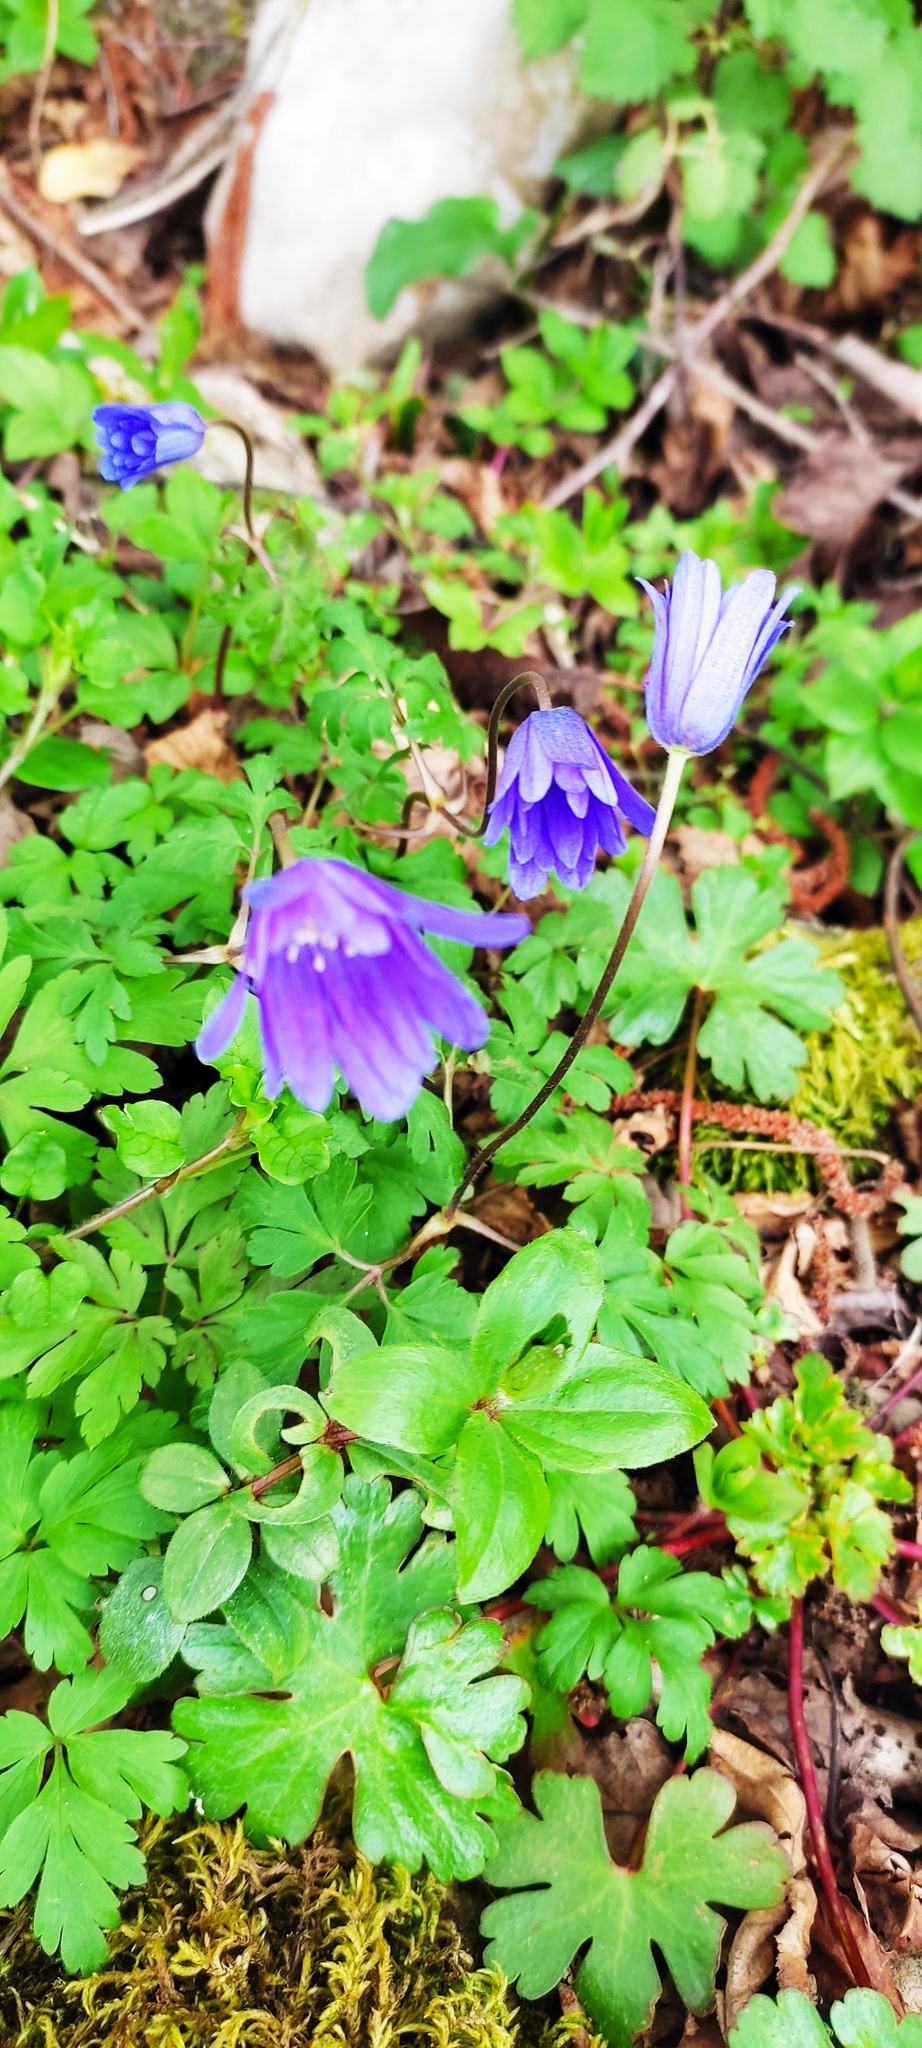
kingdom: Plantae
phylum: Tracheophyta
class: Magnoliopsida
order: Ranunculales
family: Ranunculaceae
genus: Anemone
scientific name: Anemone hortensis
